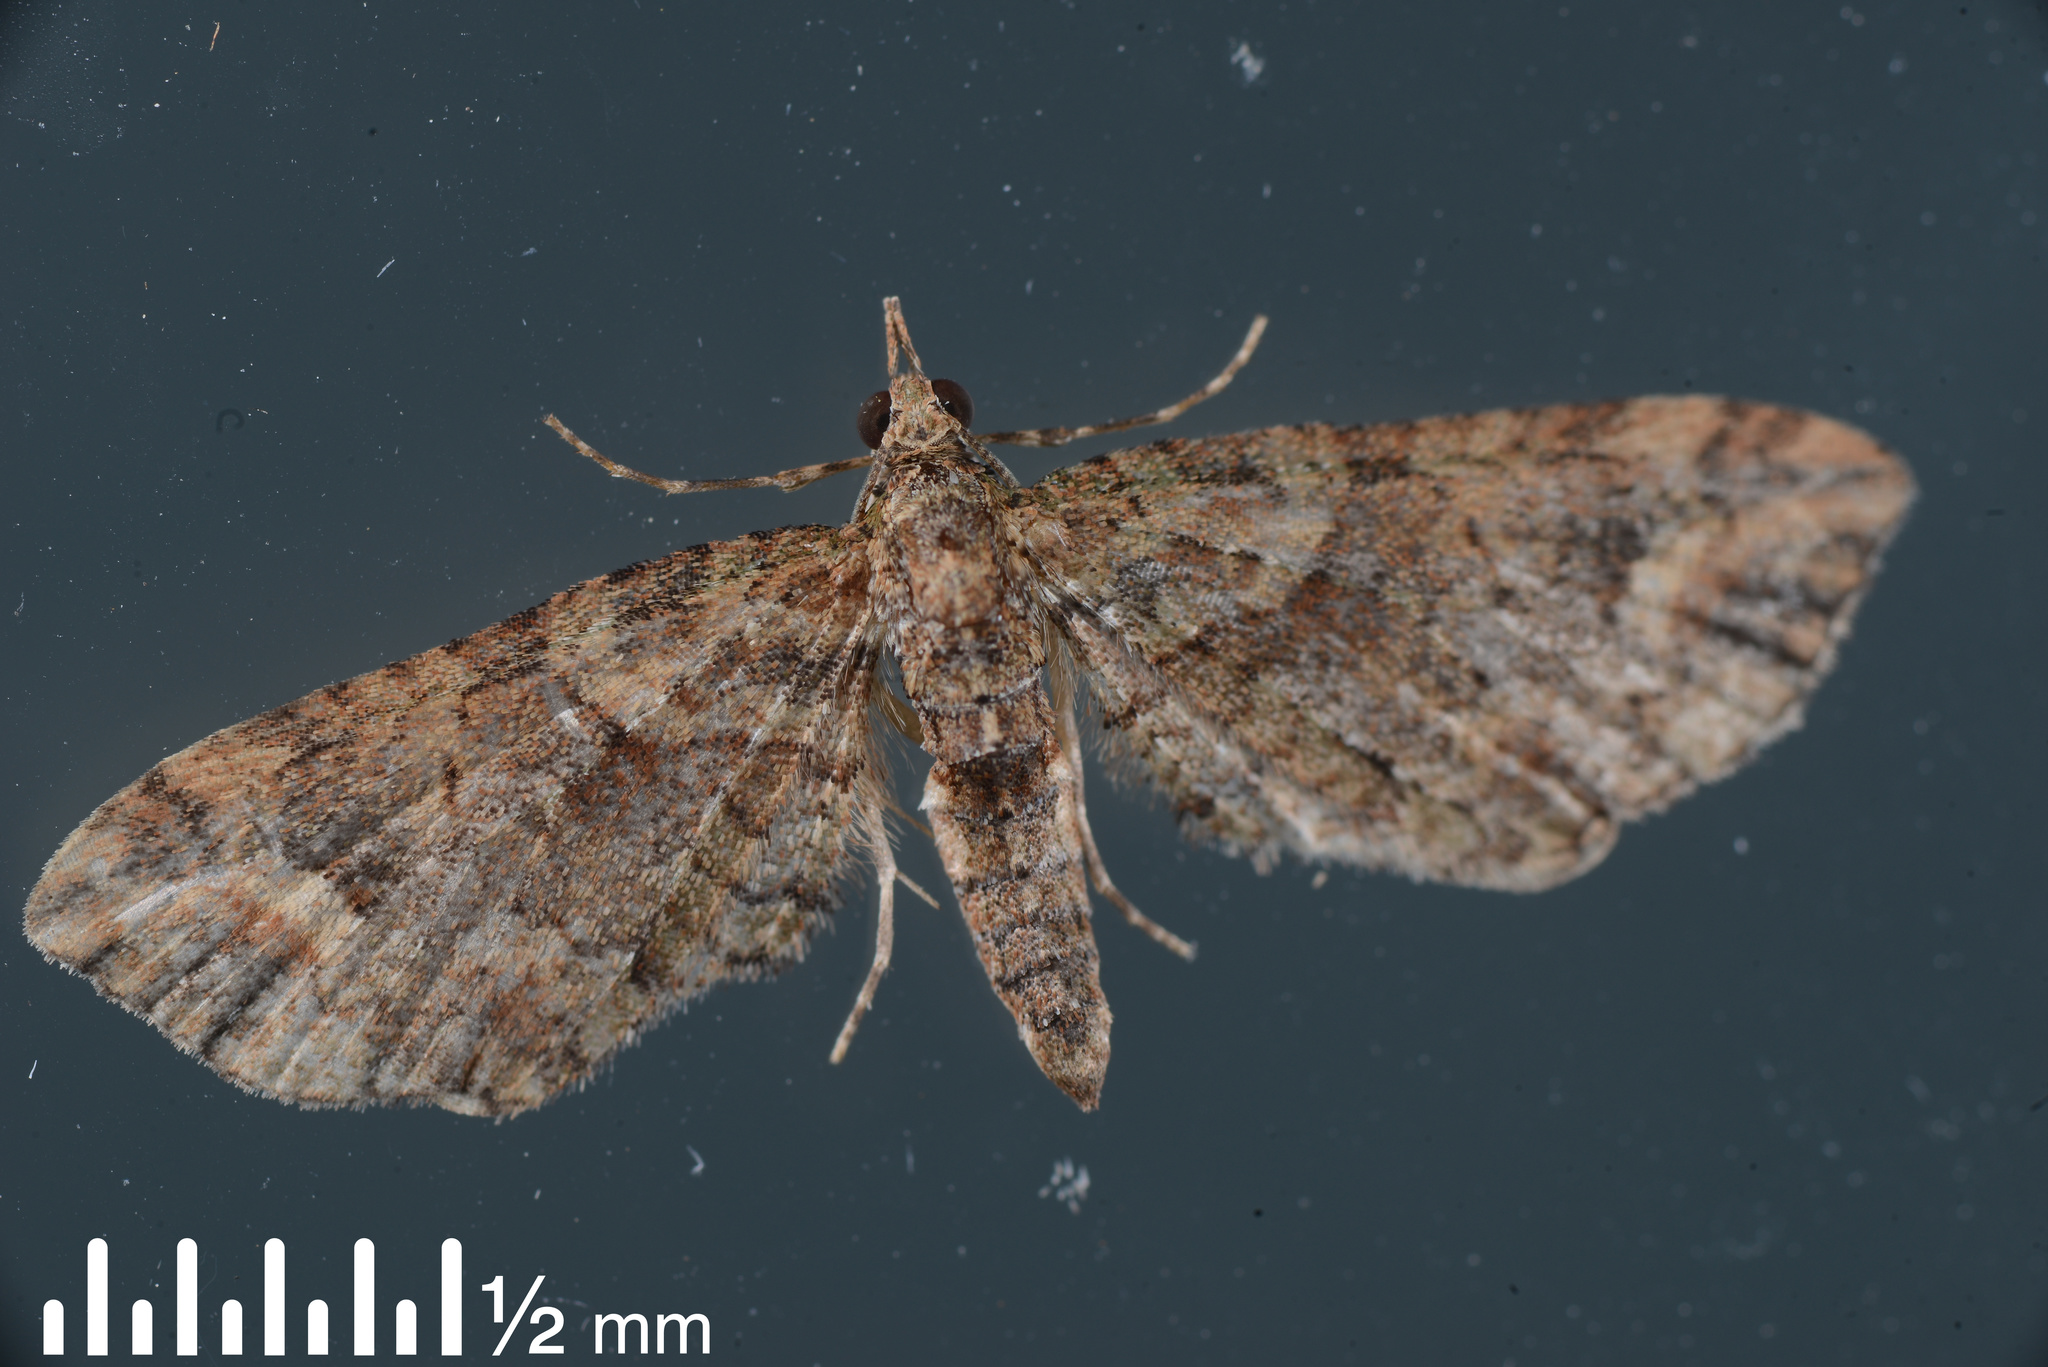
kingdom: Animalia
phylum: Arthropoda
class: Insecta
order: Lepidoptera
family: Geometridae
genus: Idaea
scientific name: Idaea mutanda
